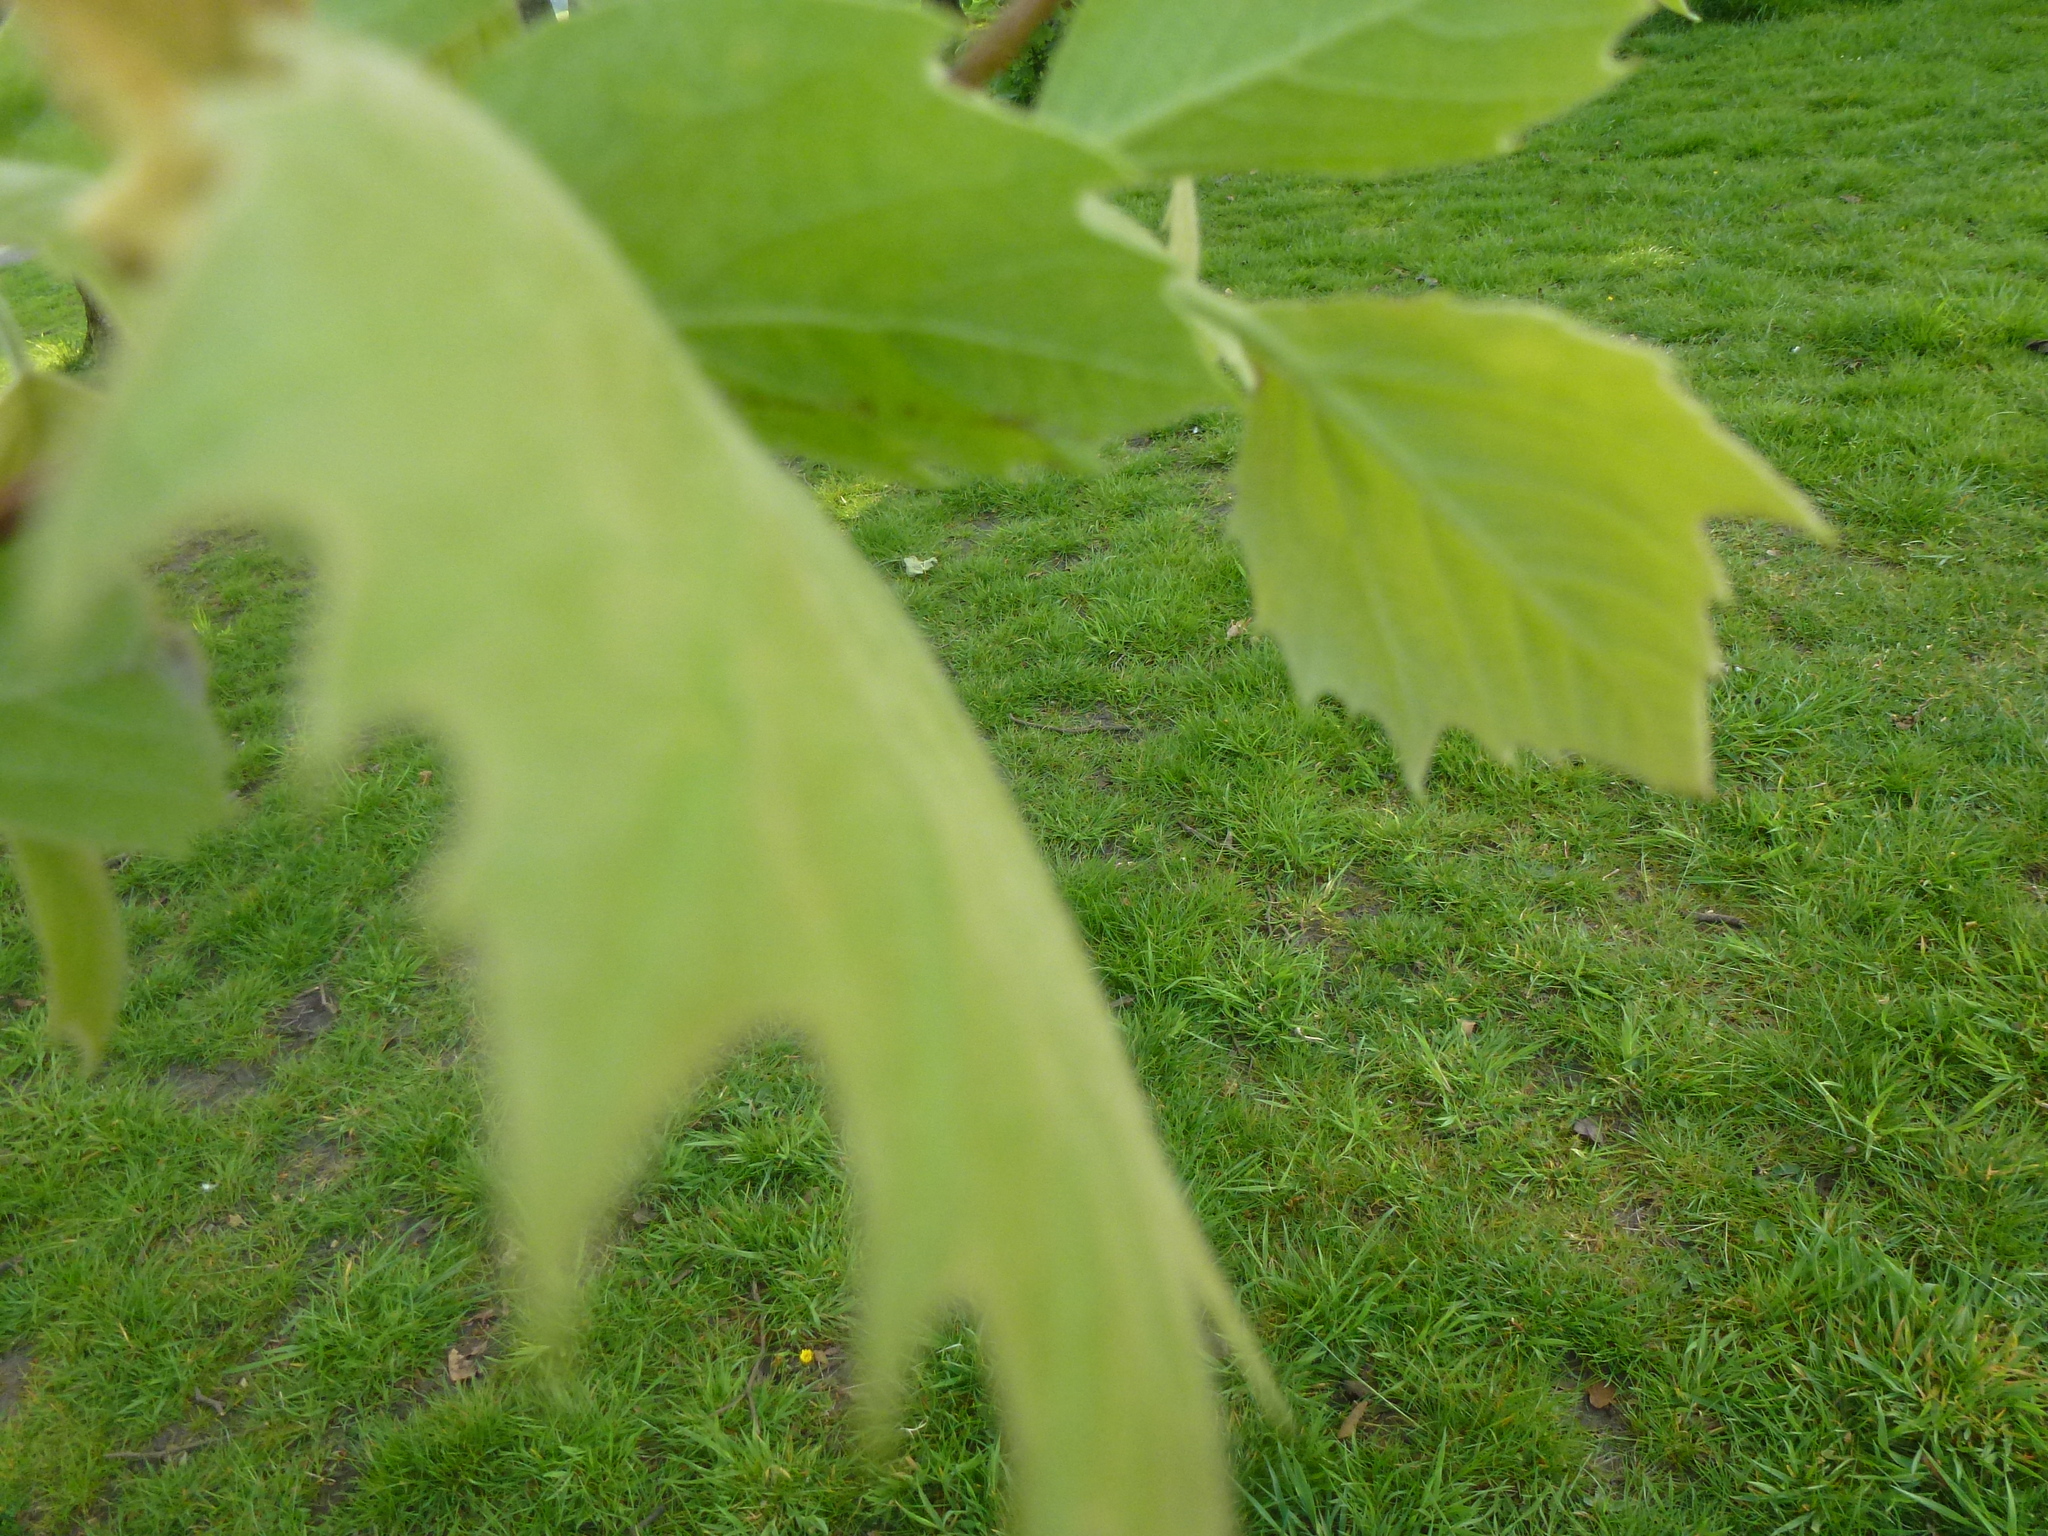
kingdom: Plantae
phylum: Tracheophyta
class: Magnoliopsida
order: Proteales
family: Platanaceae
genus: Platanus
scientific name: Platanus hispanica
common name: London plane
